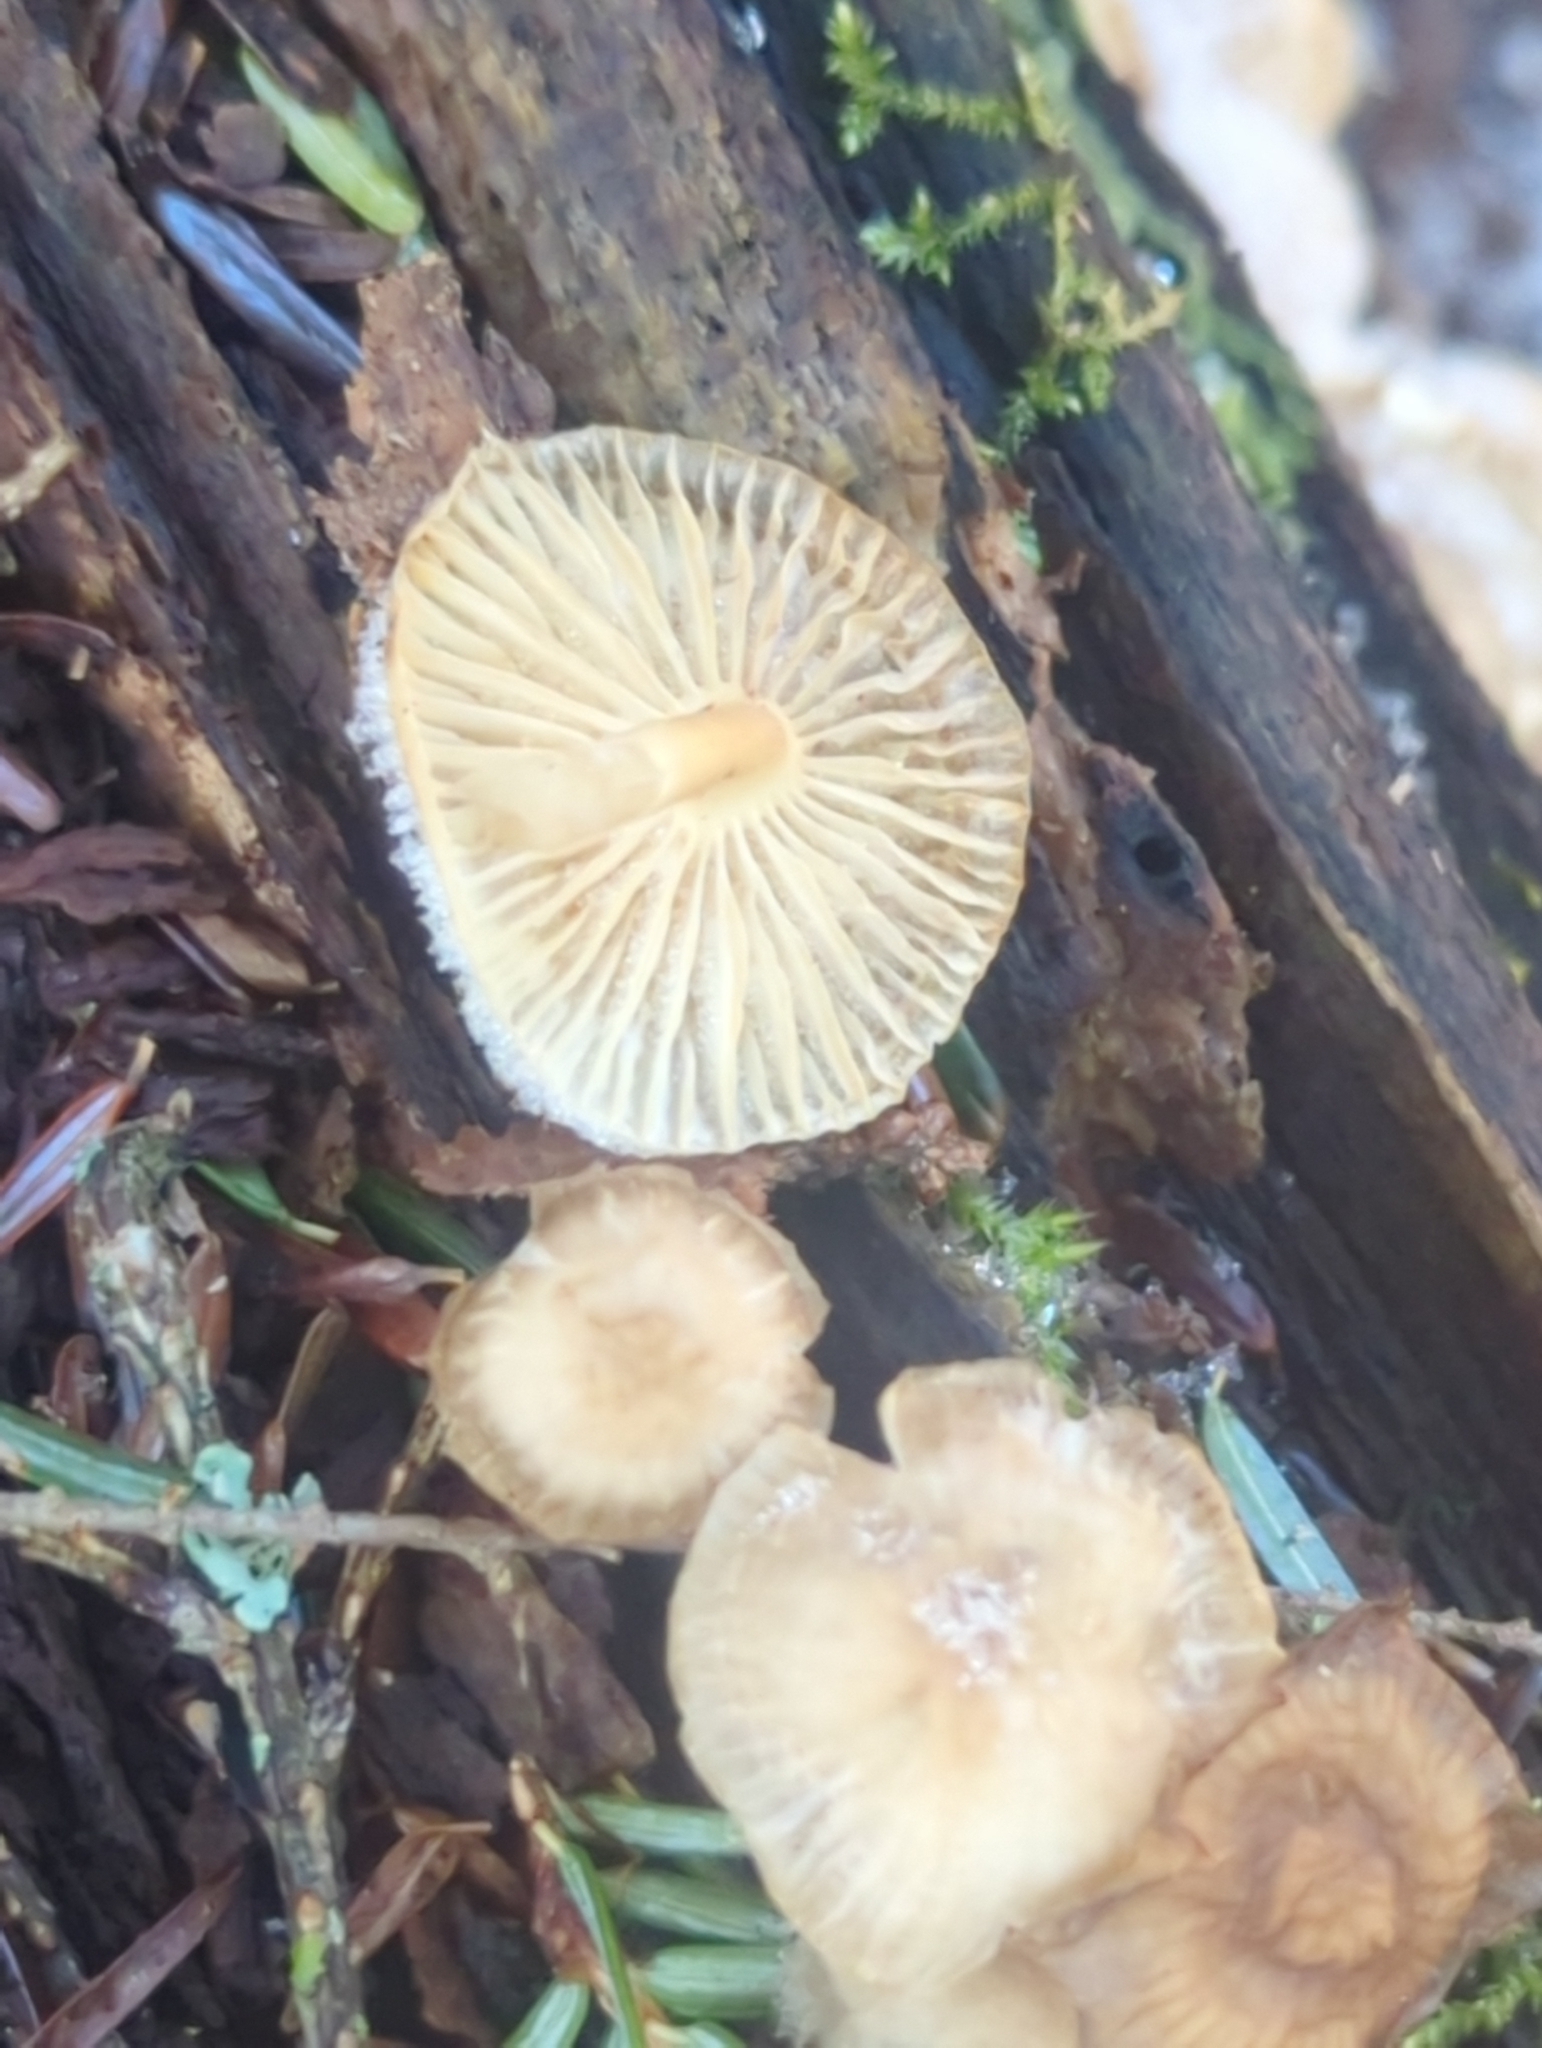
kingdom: Fungi
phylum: Basidiomycota
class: Agaricomycetes
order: Agaricales
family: Mycenaceae
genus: Mycena
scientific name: Mycena overholtsii
